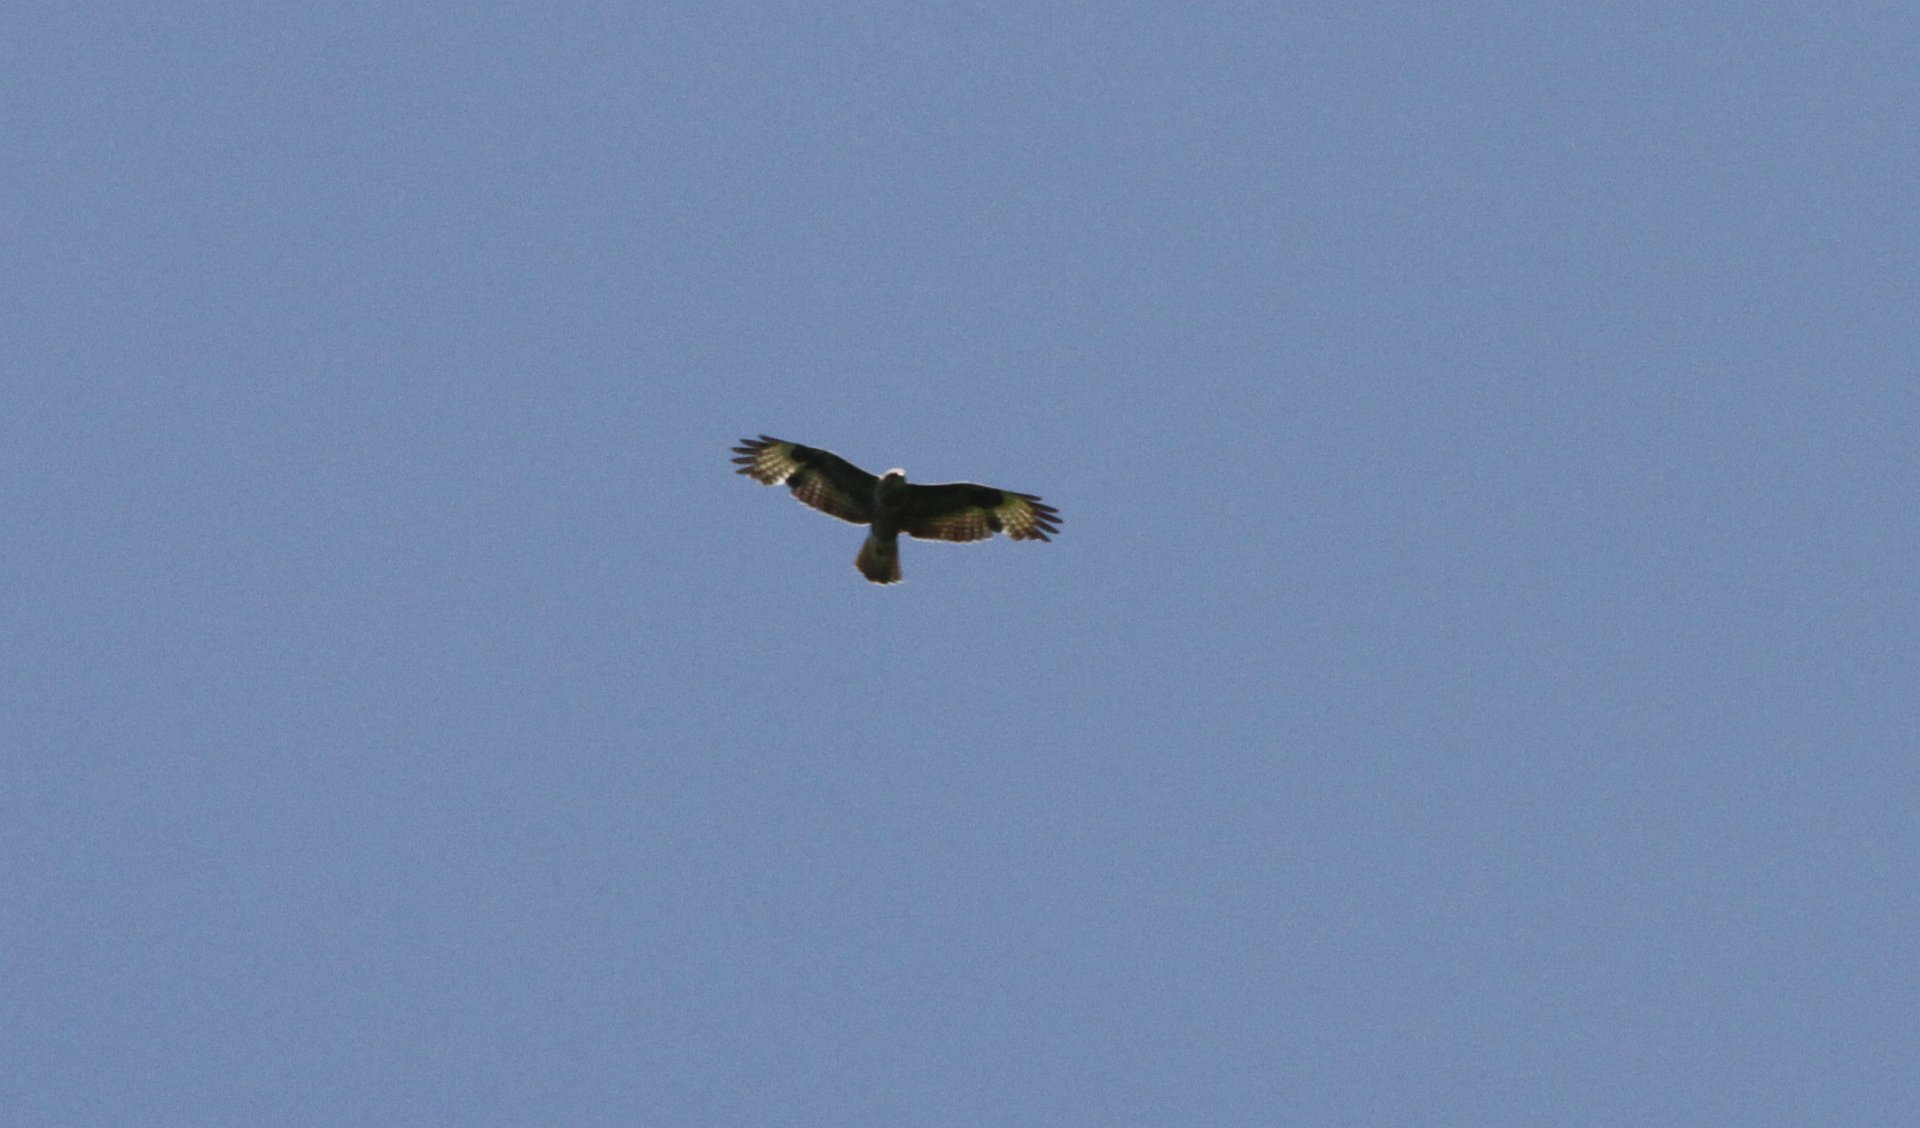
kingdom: Animalia
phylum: Chordata
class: Aves
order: Accipitriformes
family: Accipitridae
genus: Buteo
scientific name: Buteo buteo
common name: Common buzzard
